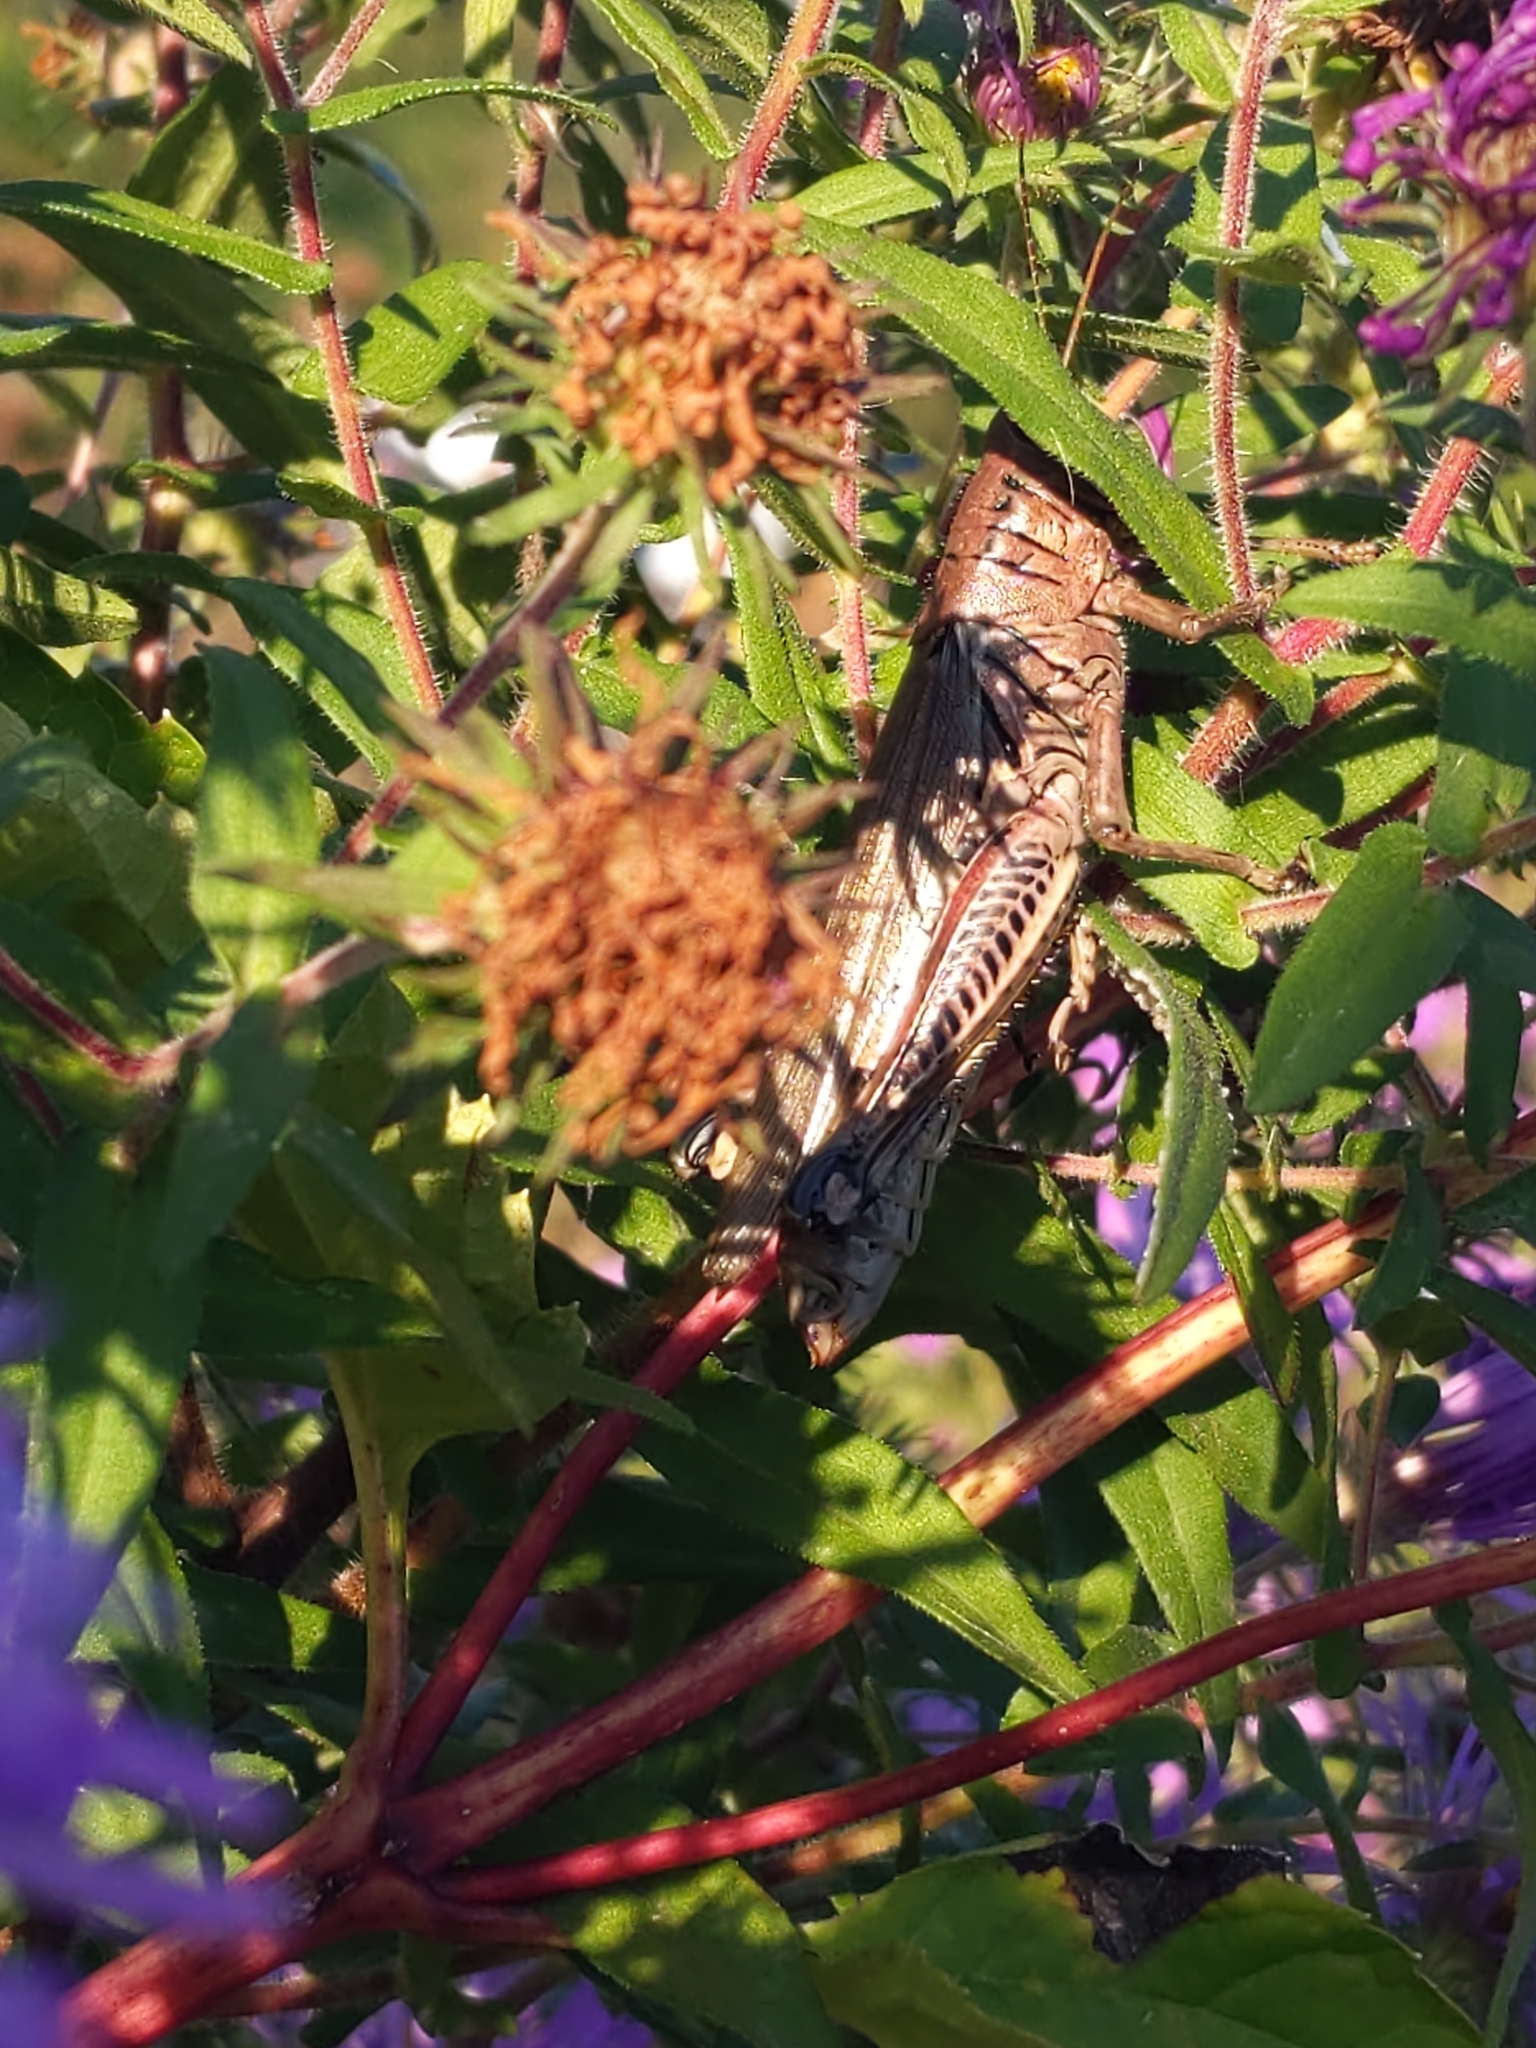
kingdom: Animalia
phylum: Arthropoda
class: Insecta
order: Orthoptera
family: Acrididae
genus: Melanoplus
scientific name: Melanoplus differentialis
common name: Differential grasshopper
